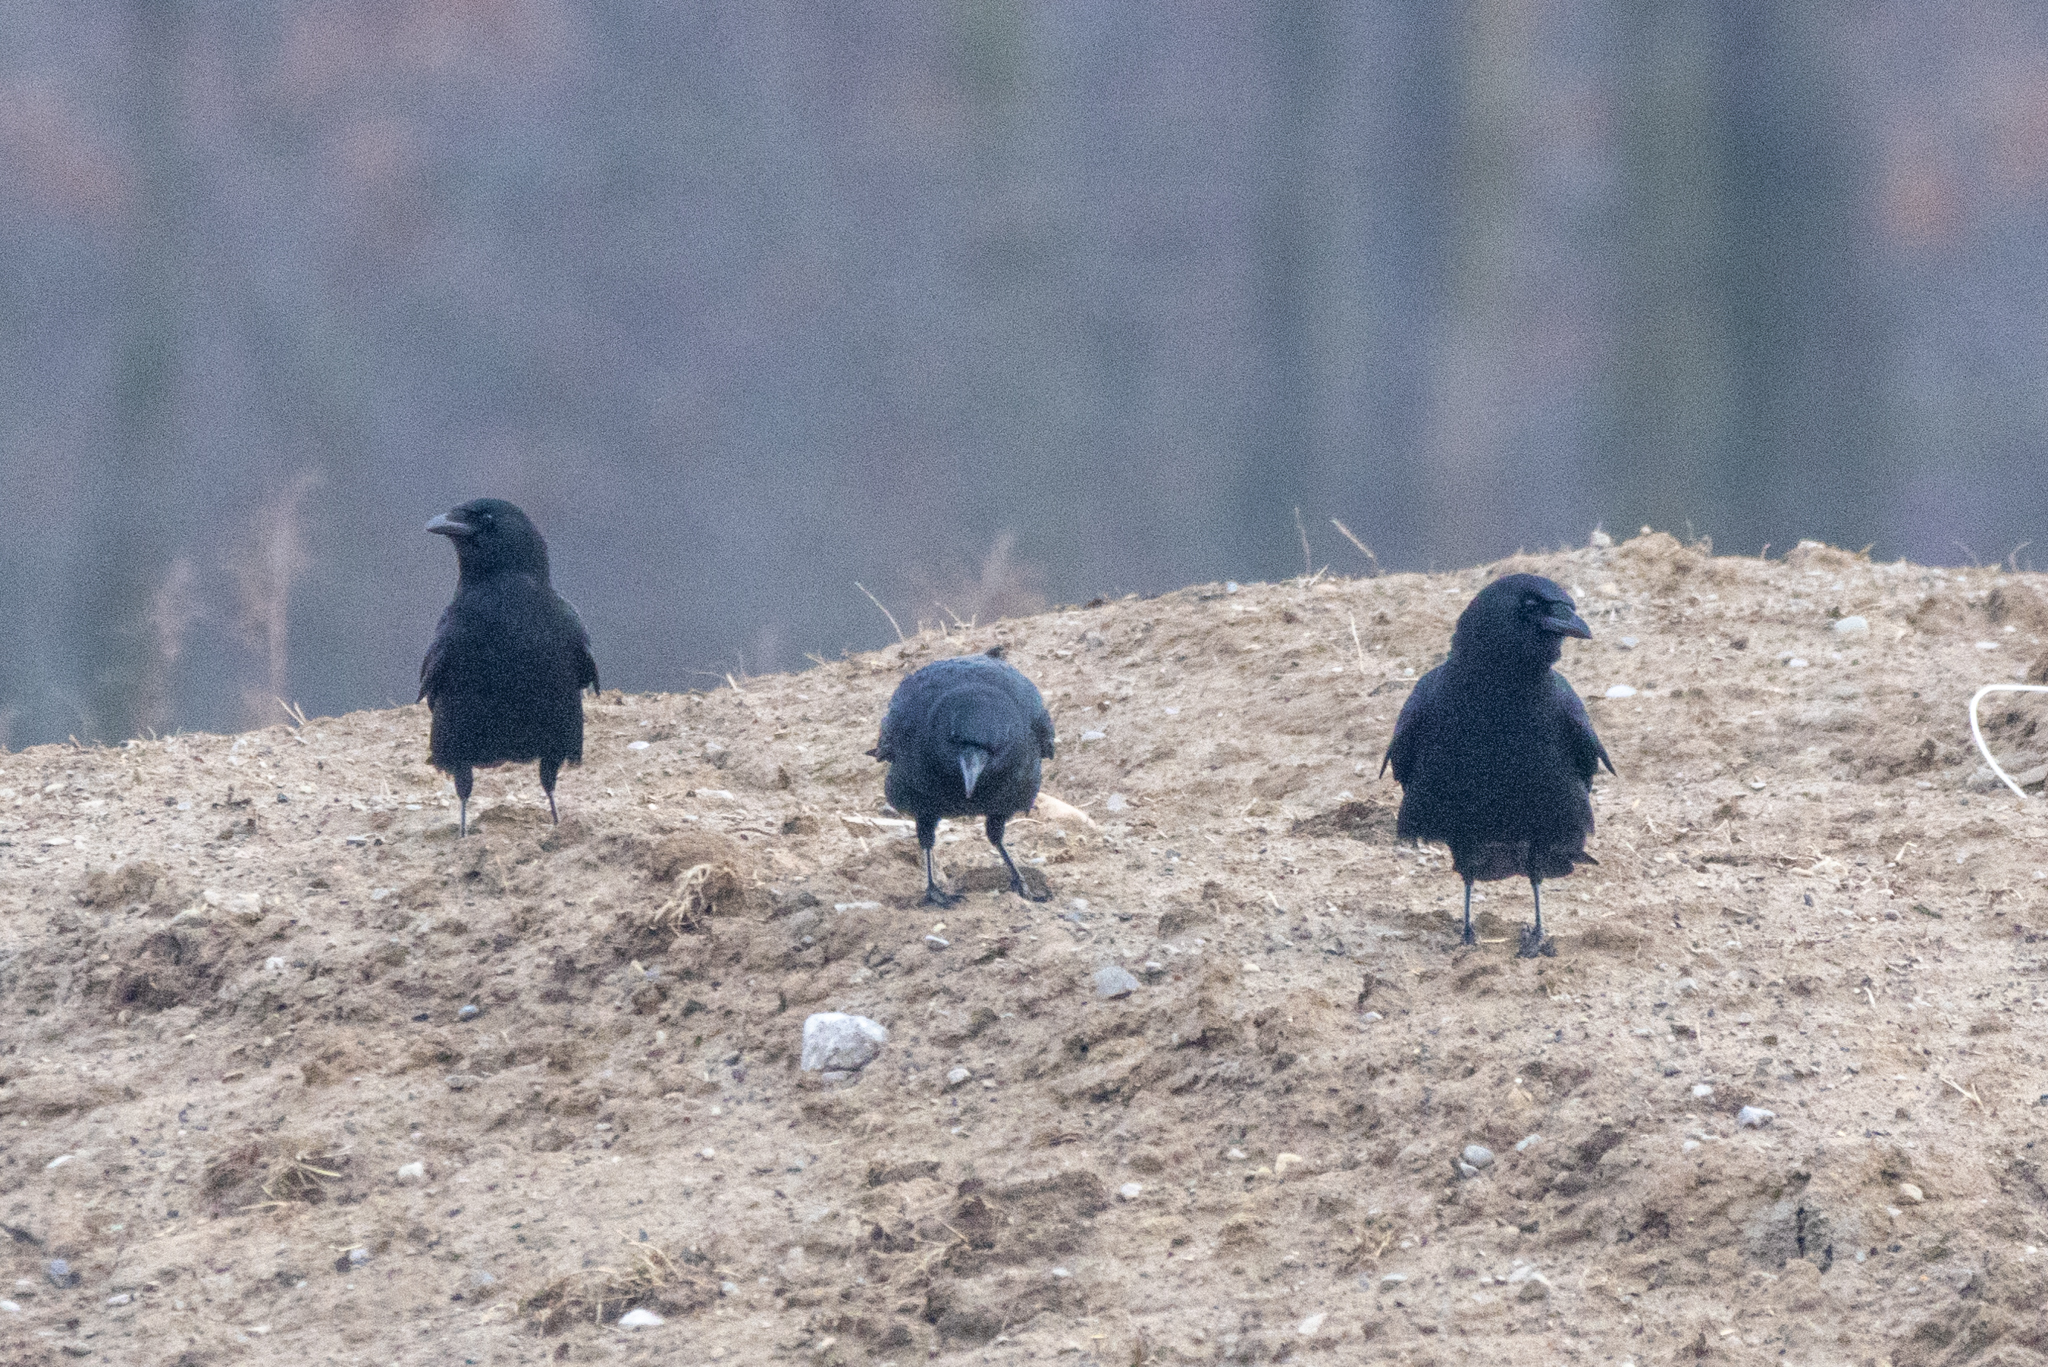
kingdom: Animalia
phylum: Chordata
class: Aves
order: Passeriformes
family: Corvidae
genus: Corvus
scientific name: Corvus brachyrhynchos
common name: American crow
